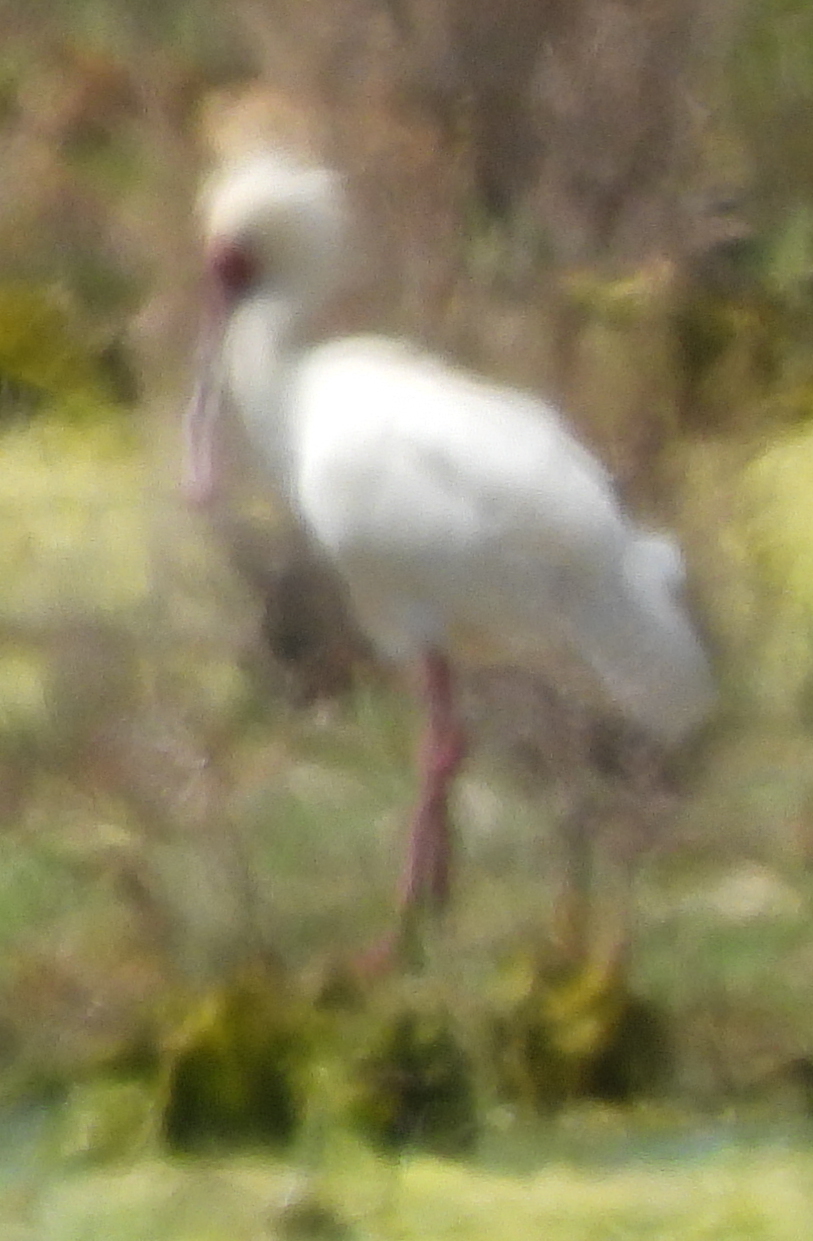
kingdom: Animalia
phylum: Chordata
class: Aves
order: Pelecaniformes
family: Threskiornithidae
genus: Platalea
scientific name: Platalea alba
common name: African spoonbill
